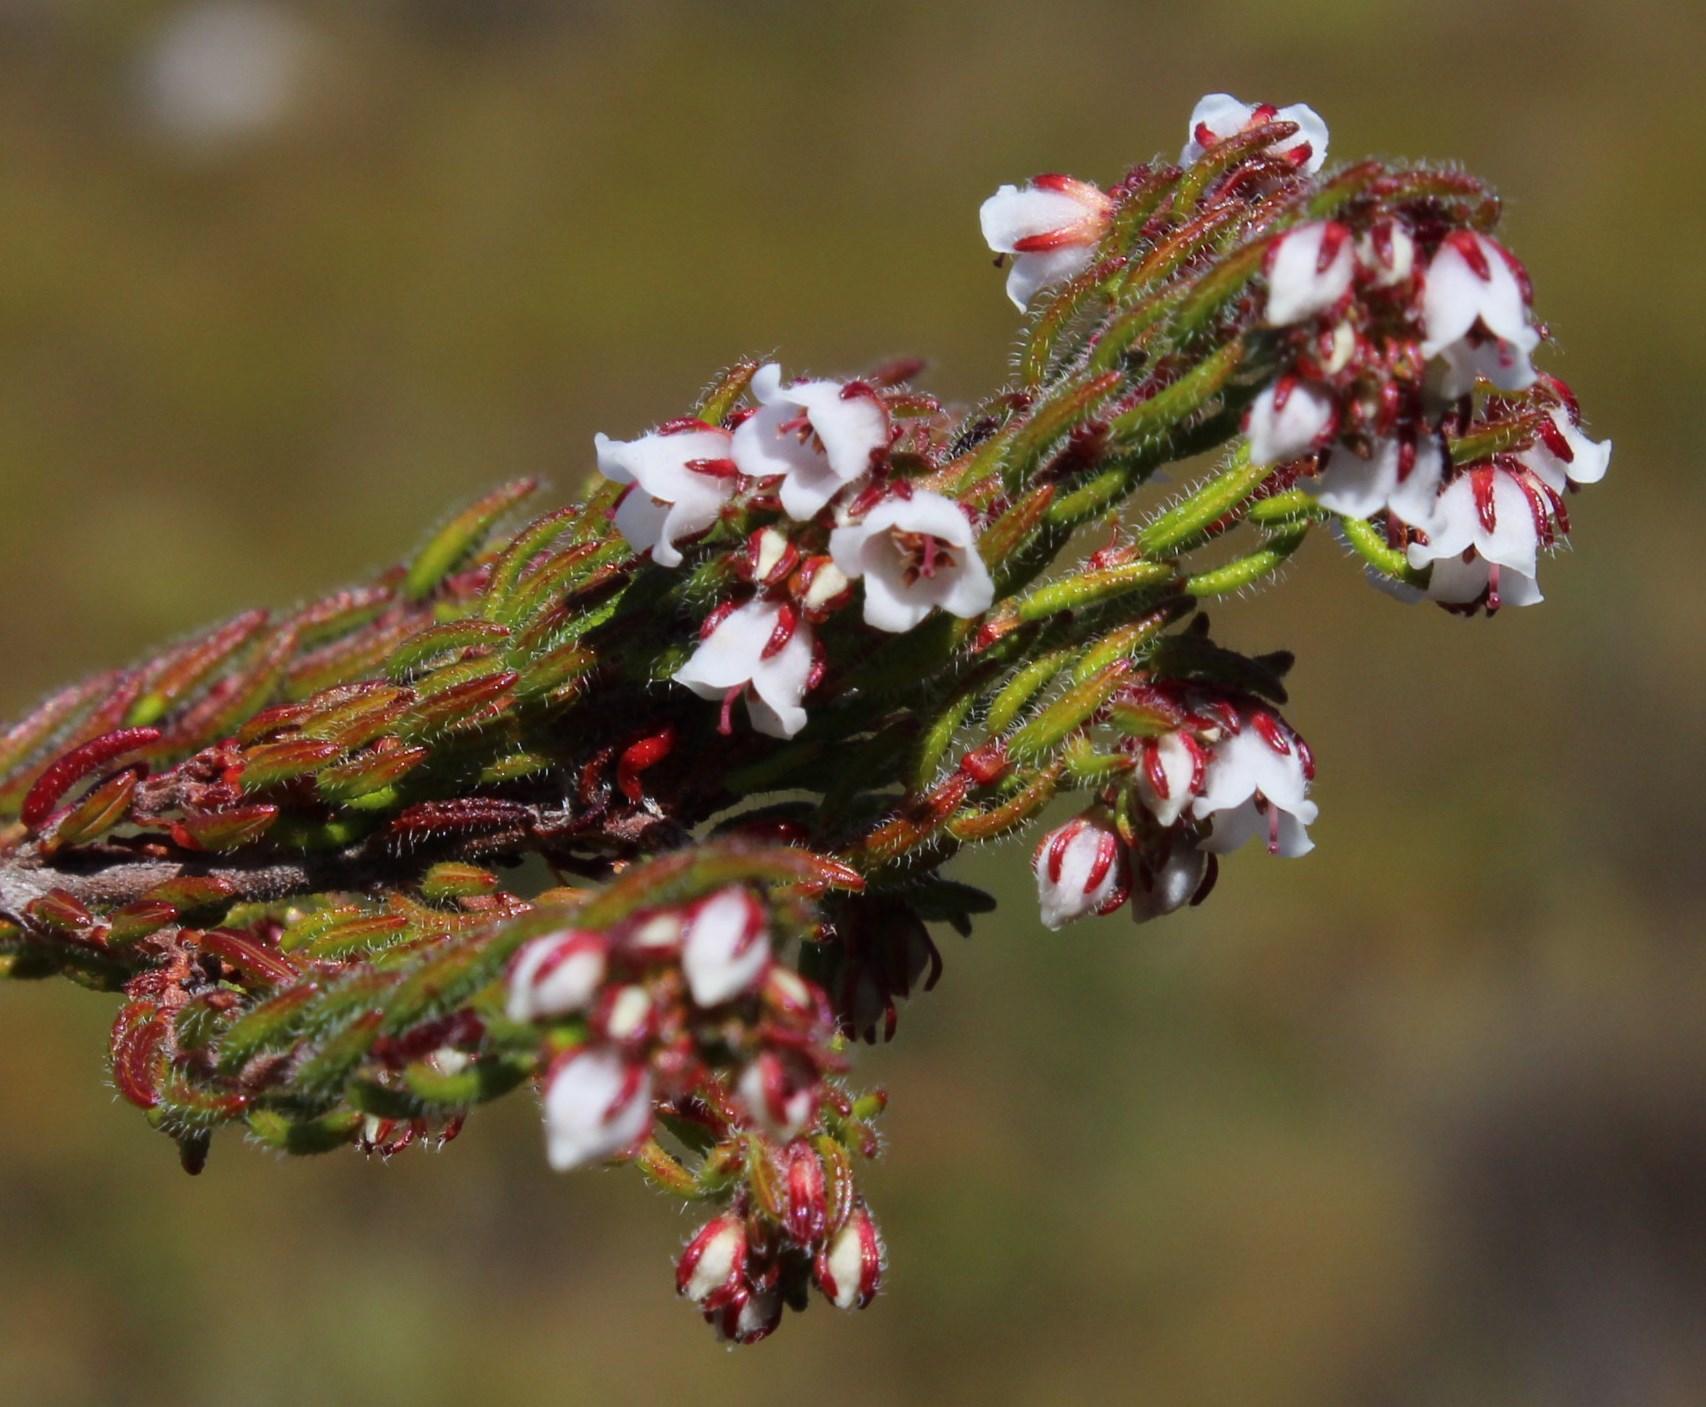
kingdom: Plantae
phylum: Tracheophyta
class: Magnoliopsida
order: Ericales
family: Ericaceae
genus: Erica
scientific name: Erica distorta
